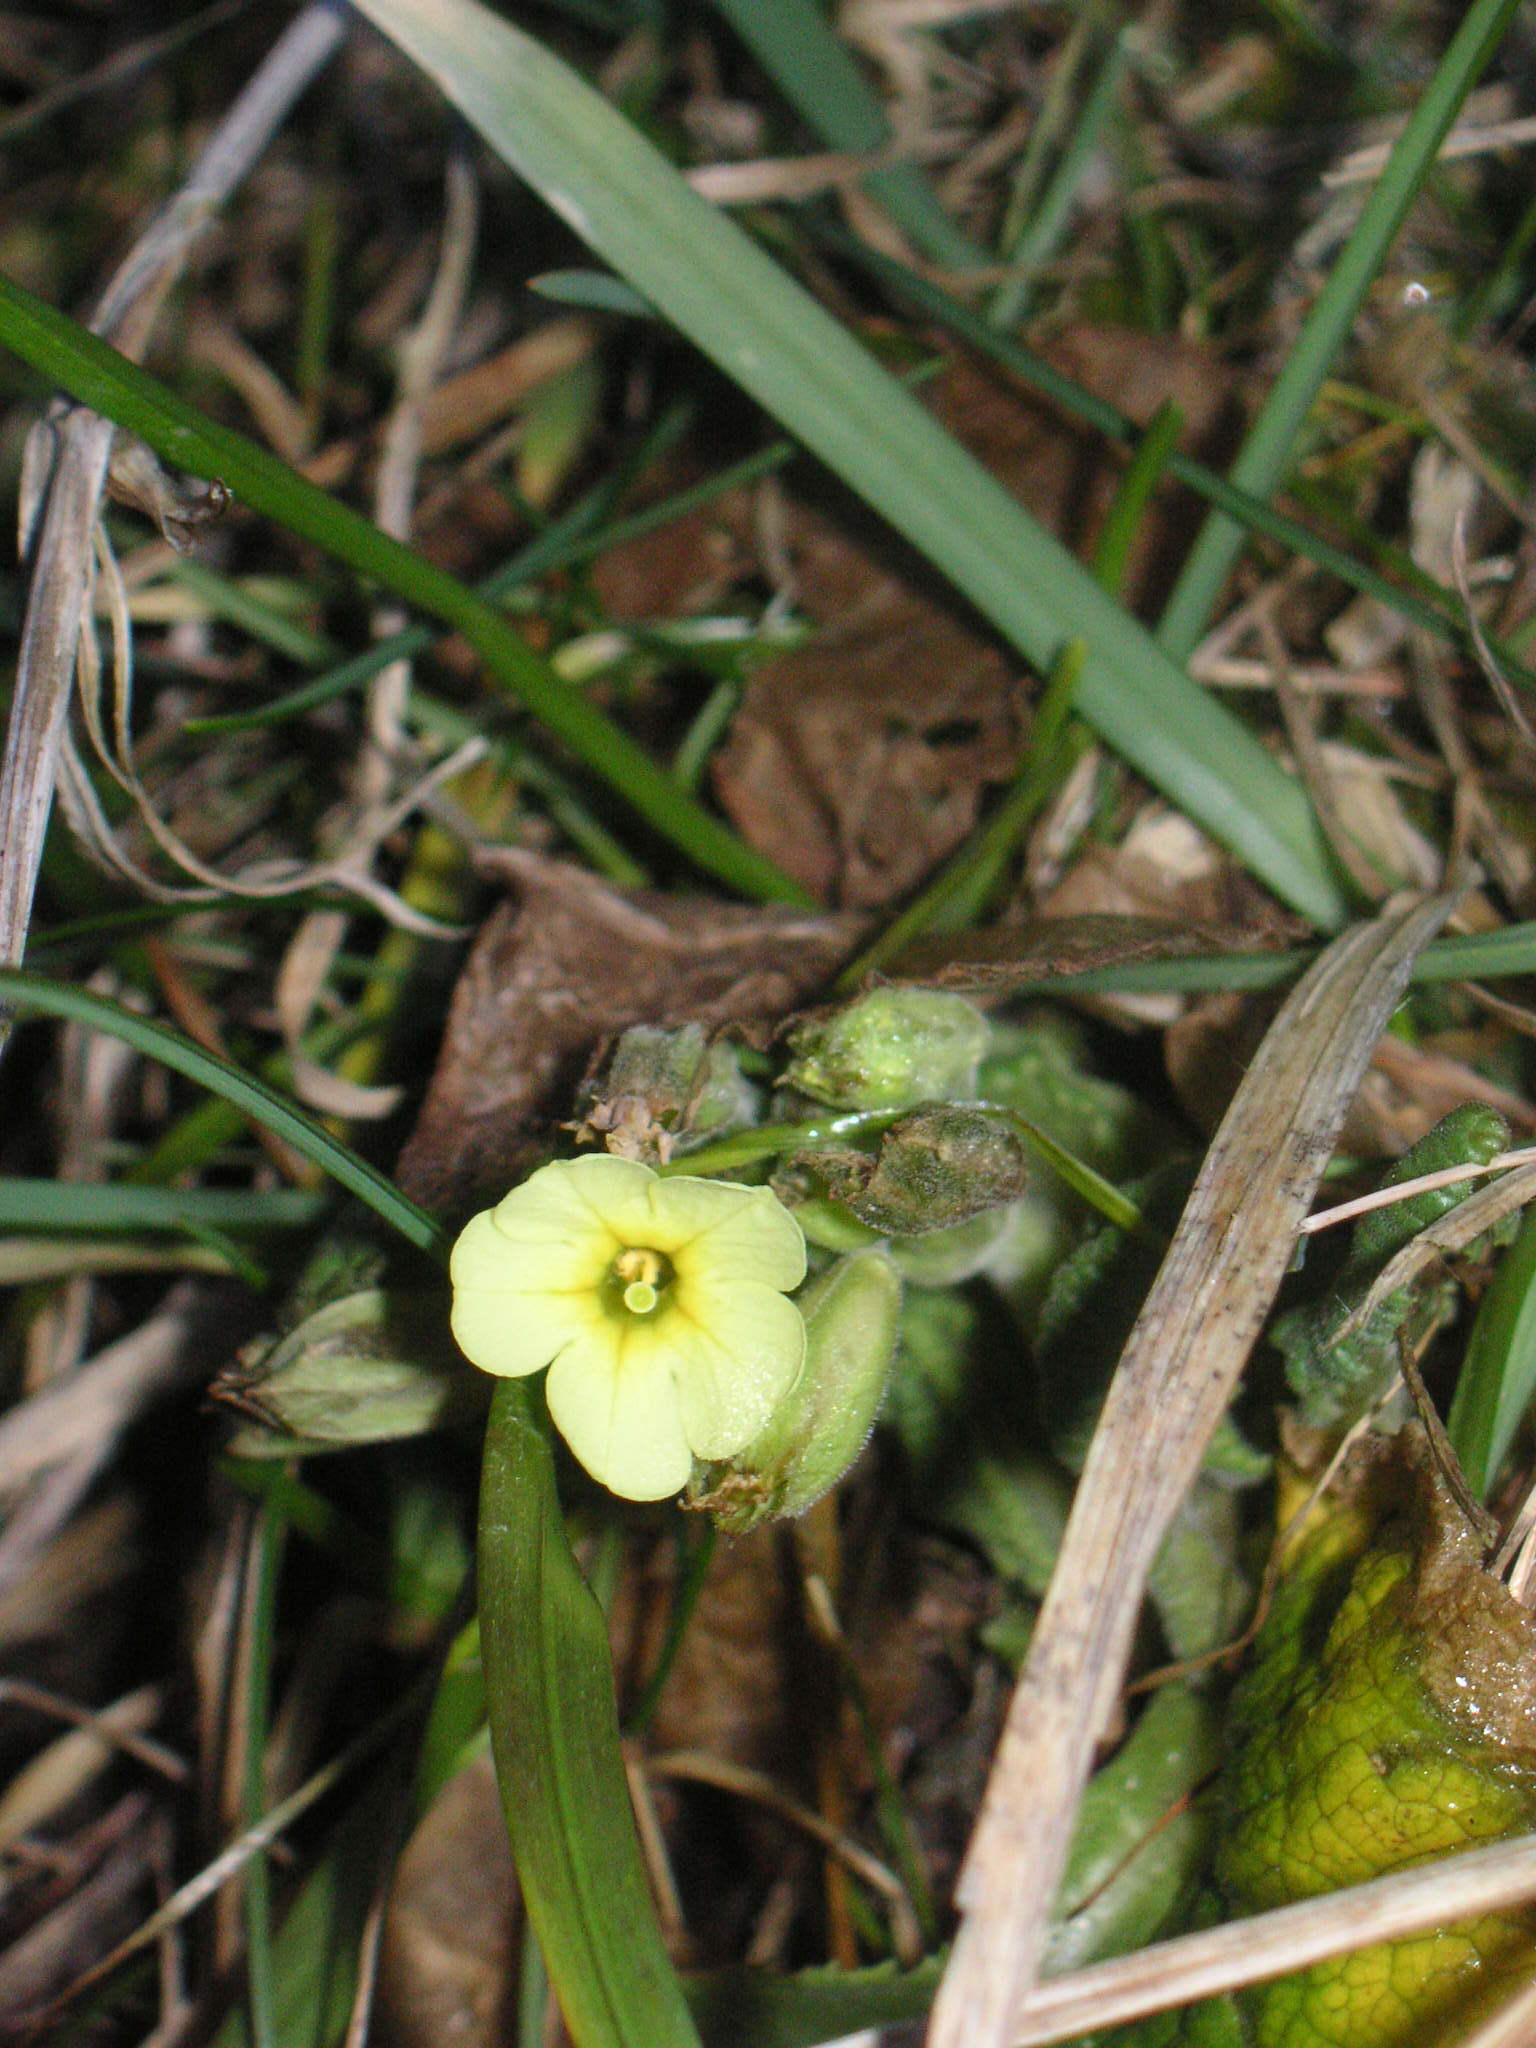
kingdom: Plantae
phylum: Tracheophyta
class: Magnoliopsida
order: Ericales
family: Primulaceae
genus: Primula
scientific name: Primula vulgaris
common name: Primrose
